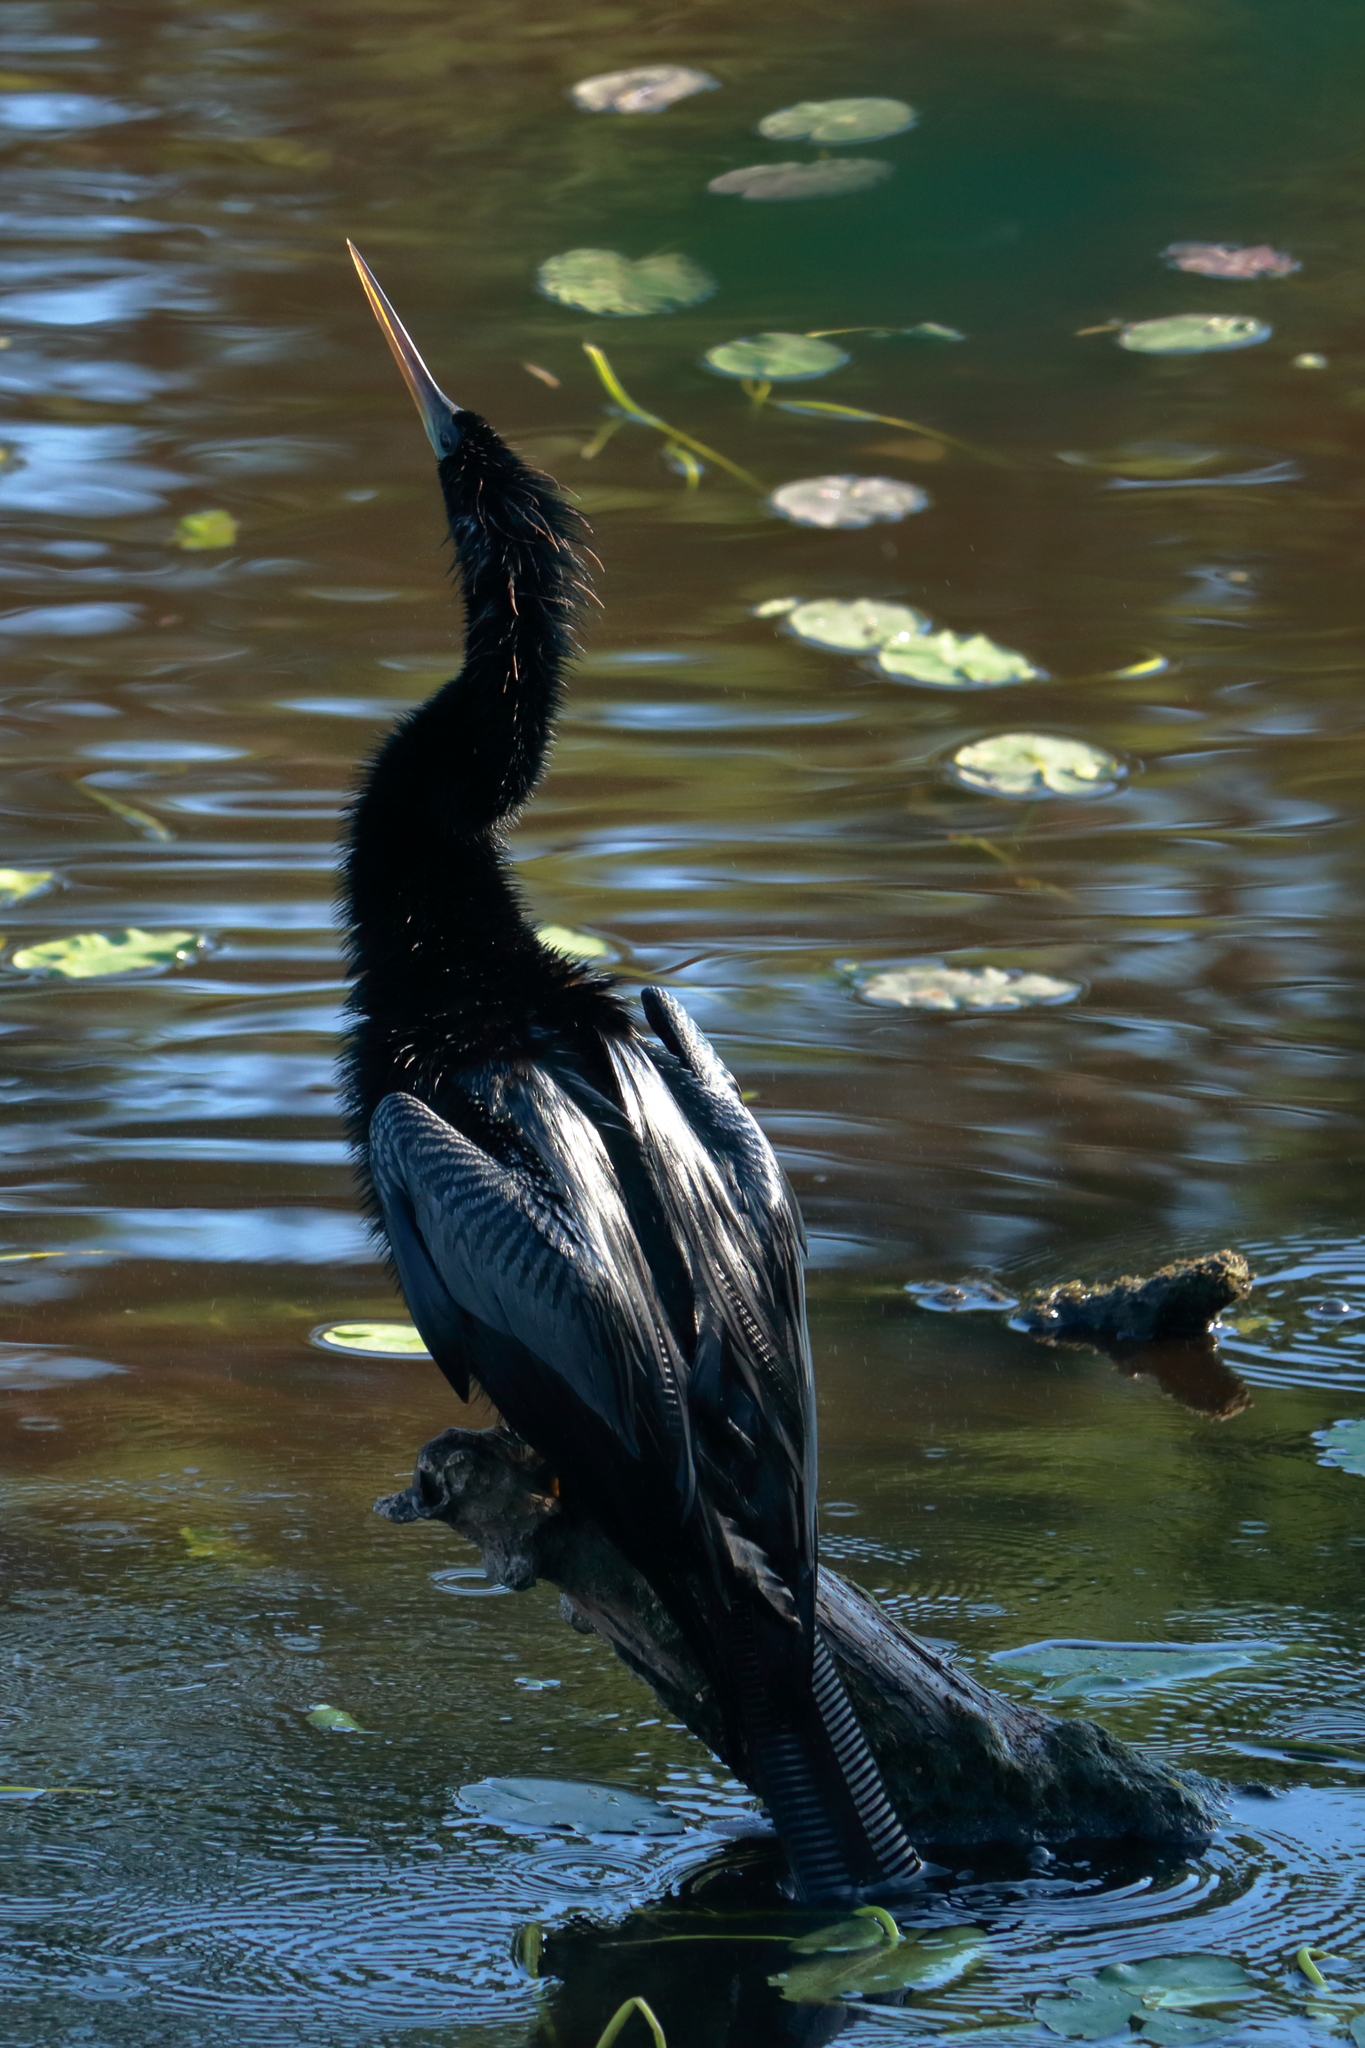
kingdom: Animalia
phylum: Chordata
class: Aves
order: Suliformes
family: Anhingidae
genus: Anhinga
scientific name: Anhinga anhinga
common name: Anhinga
